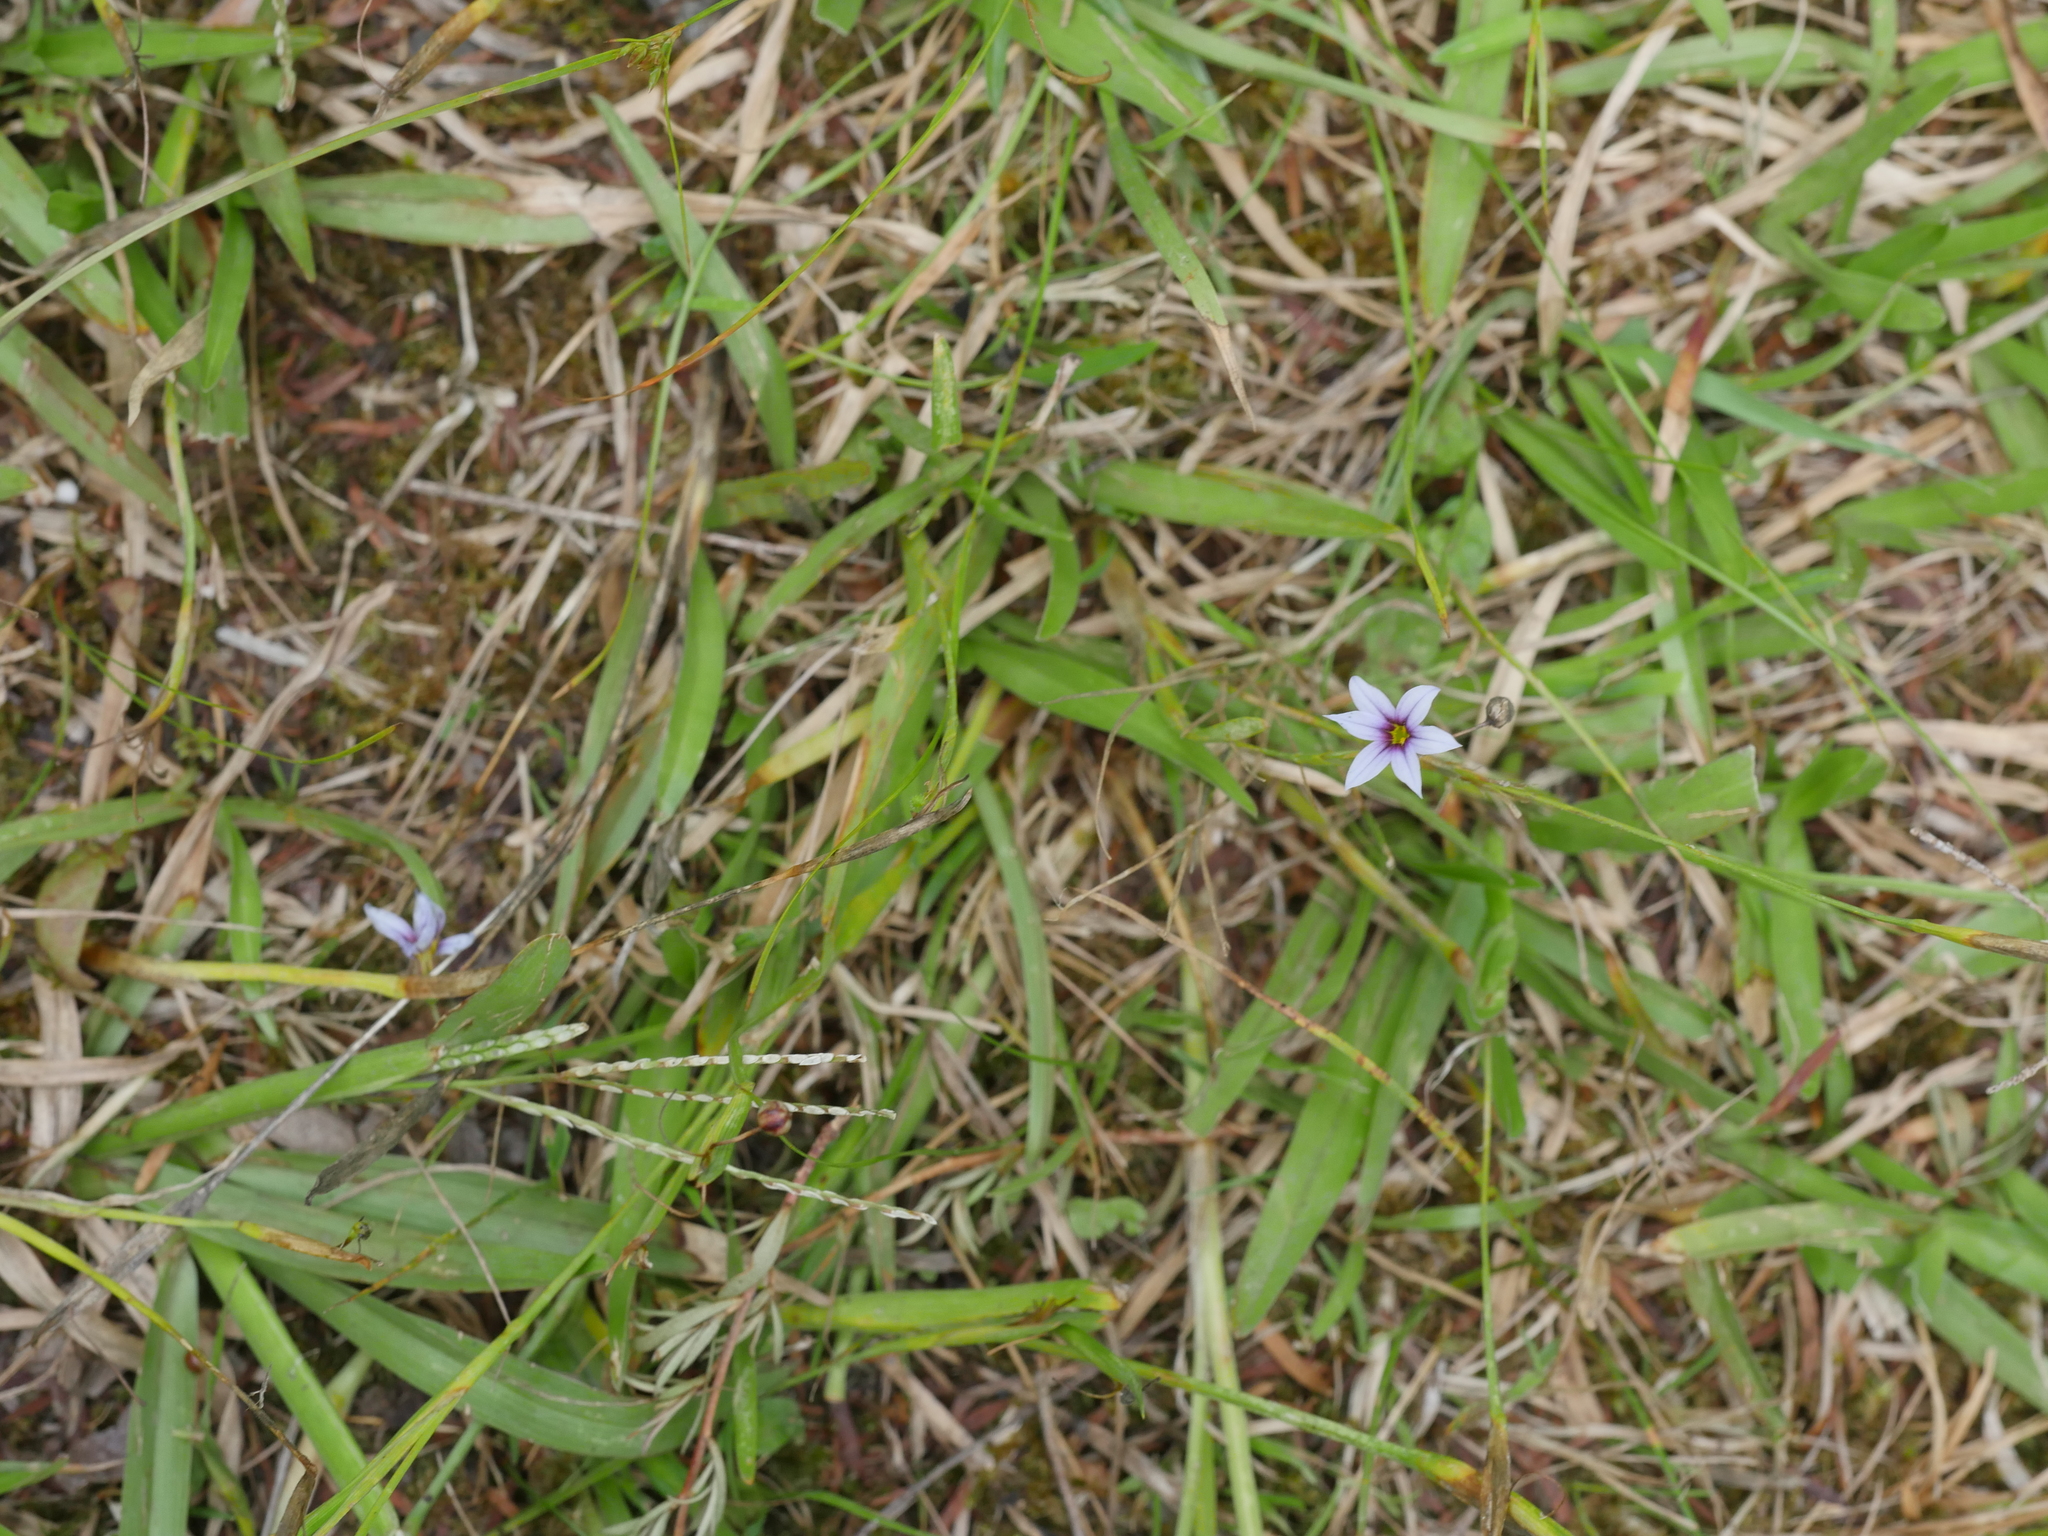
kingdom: Plantae
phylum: Tracheophyta
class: Liliopsida
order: Asparagales
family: Iridaceae
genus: Sisyrinchium
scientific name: Sisyrinchium micranthum
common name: Bermuda pigroot
